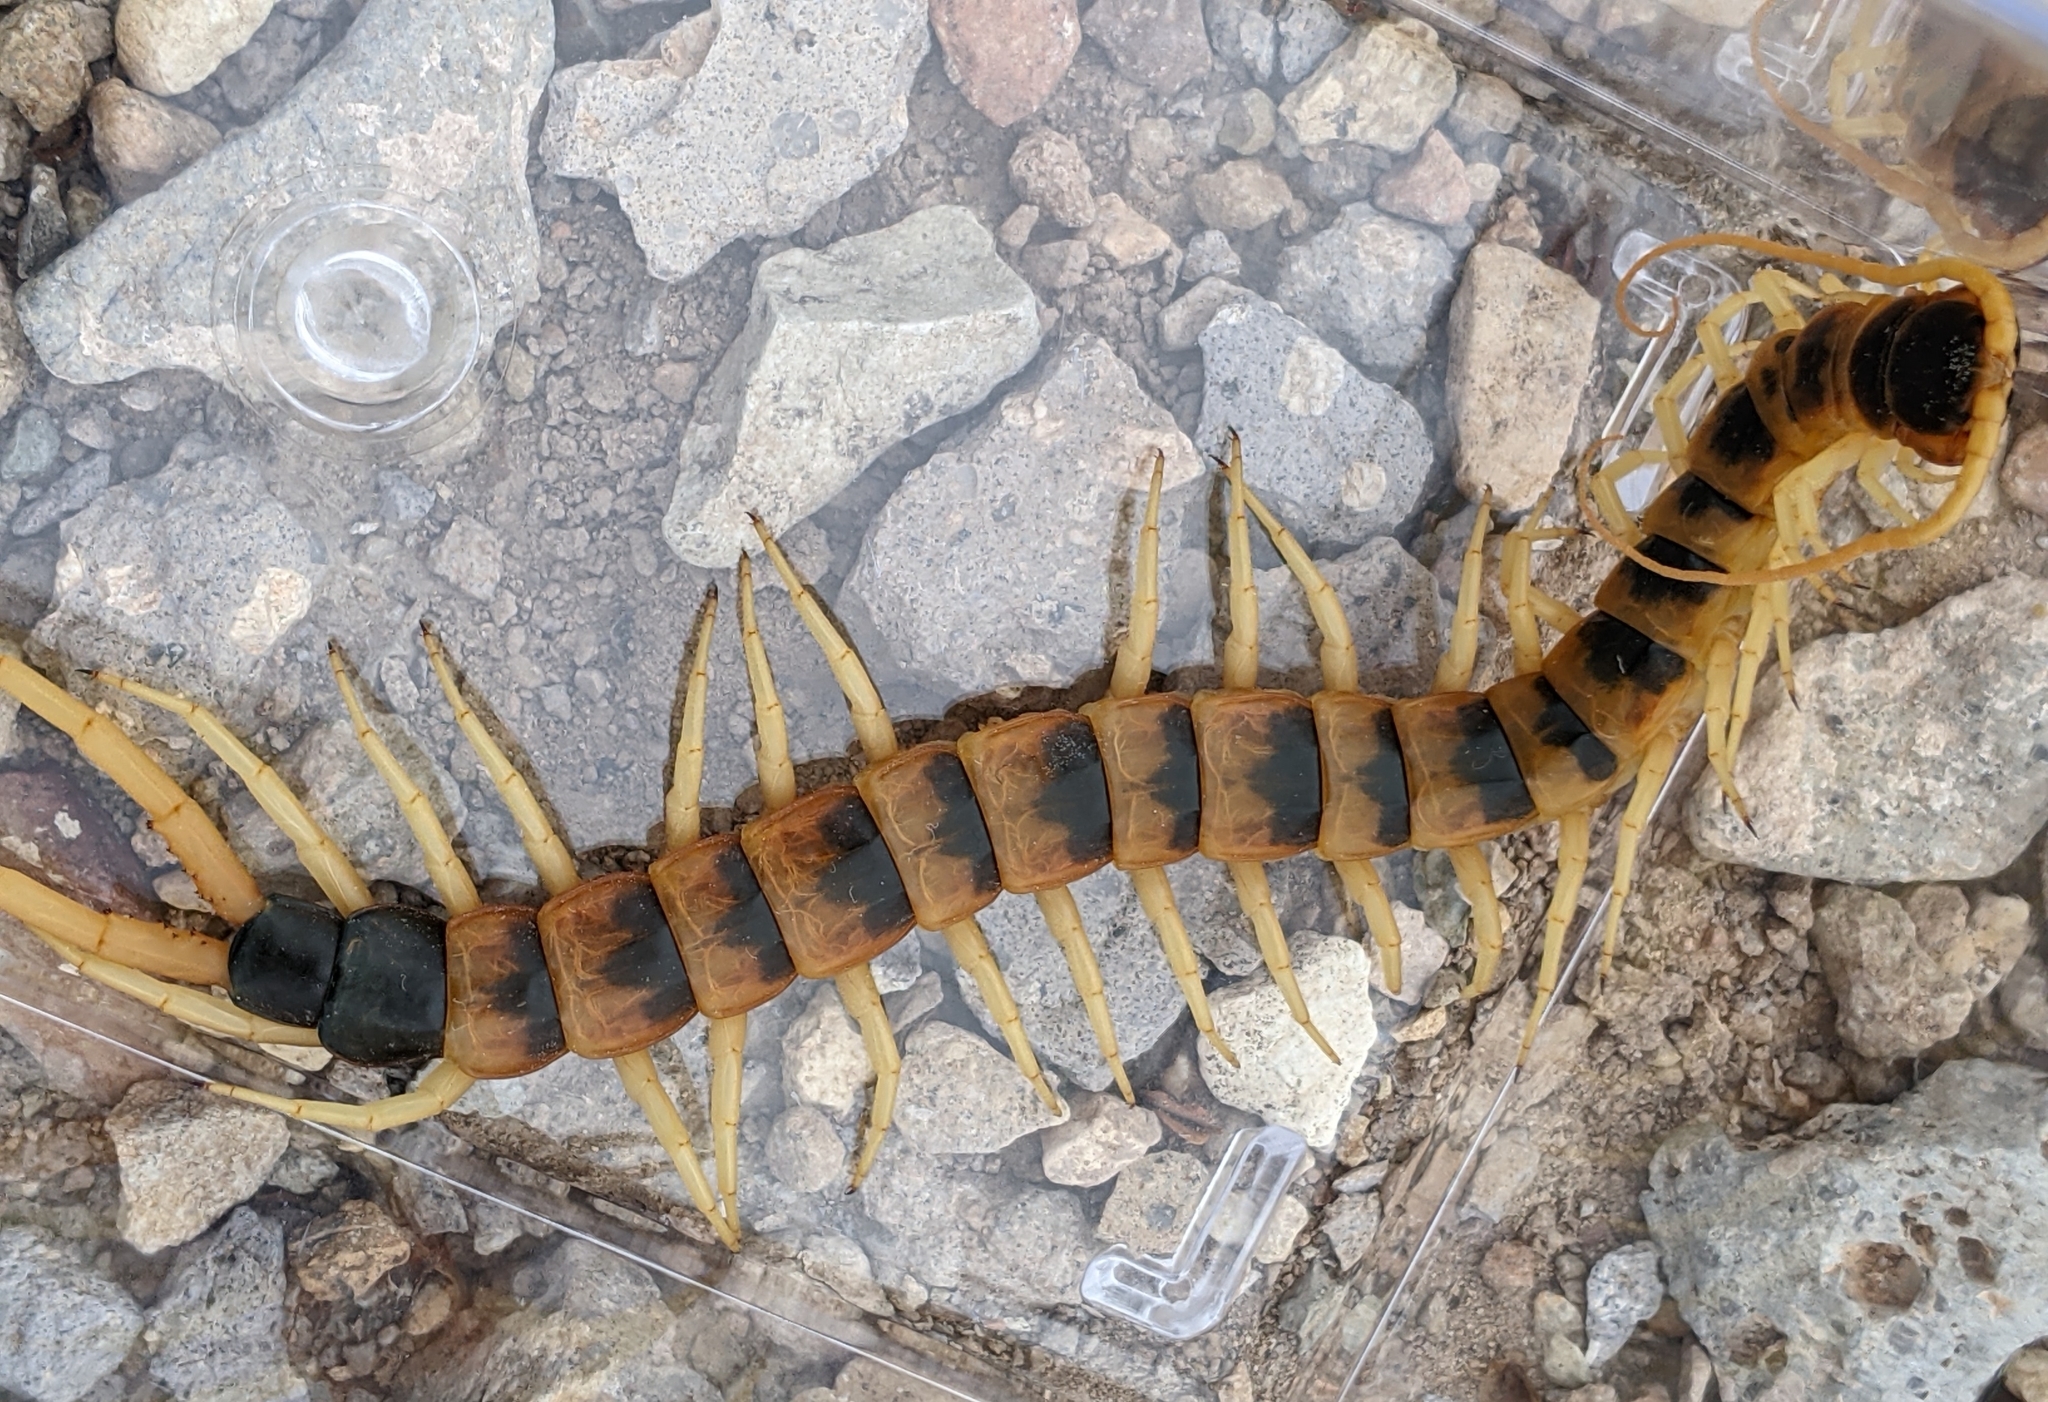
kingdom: Animalia
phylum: Arthropoda
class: Chilopoda
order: Scolopendromorpha
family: Scolopendridae
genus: Scolopendra
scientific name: Scolopendra heros
